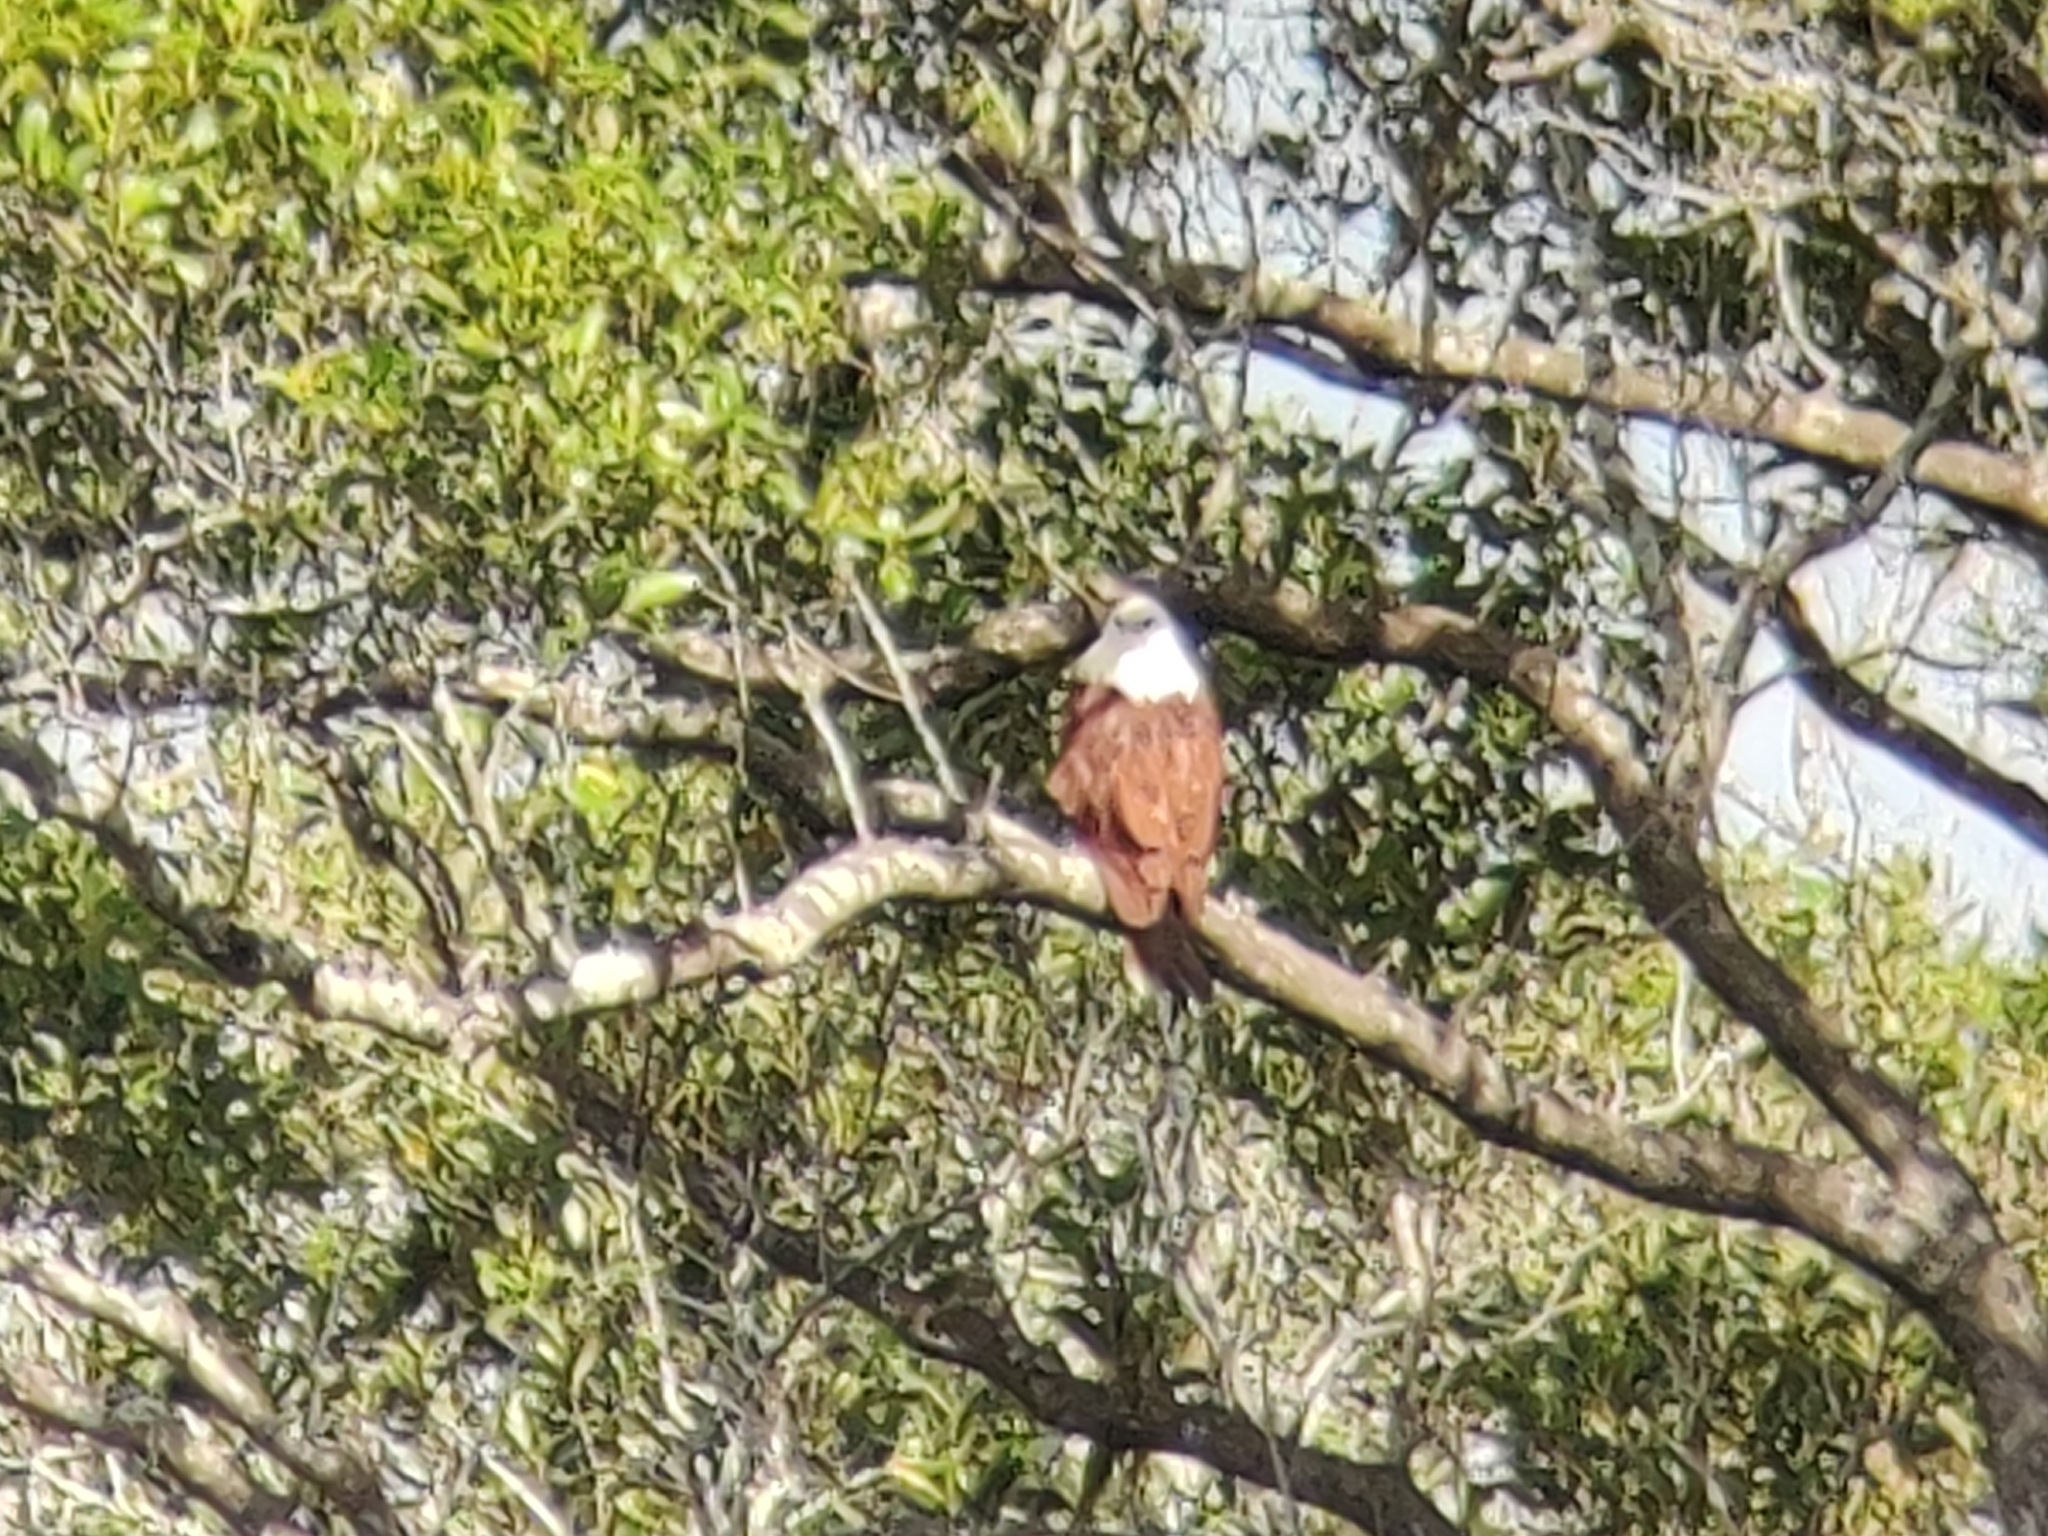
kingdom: Animalia
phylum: Chordata
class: Aves
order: Accipitriformes
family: Accipitridae
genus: Haliastur
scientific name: Haliastur indus
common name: Brahminy kite
